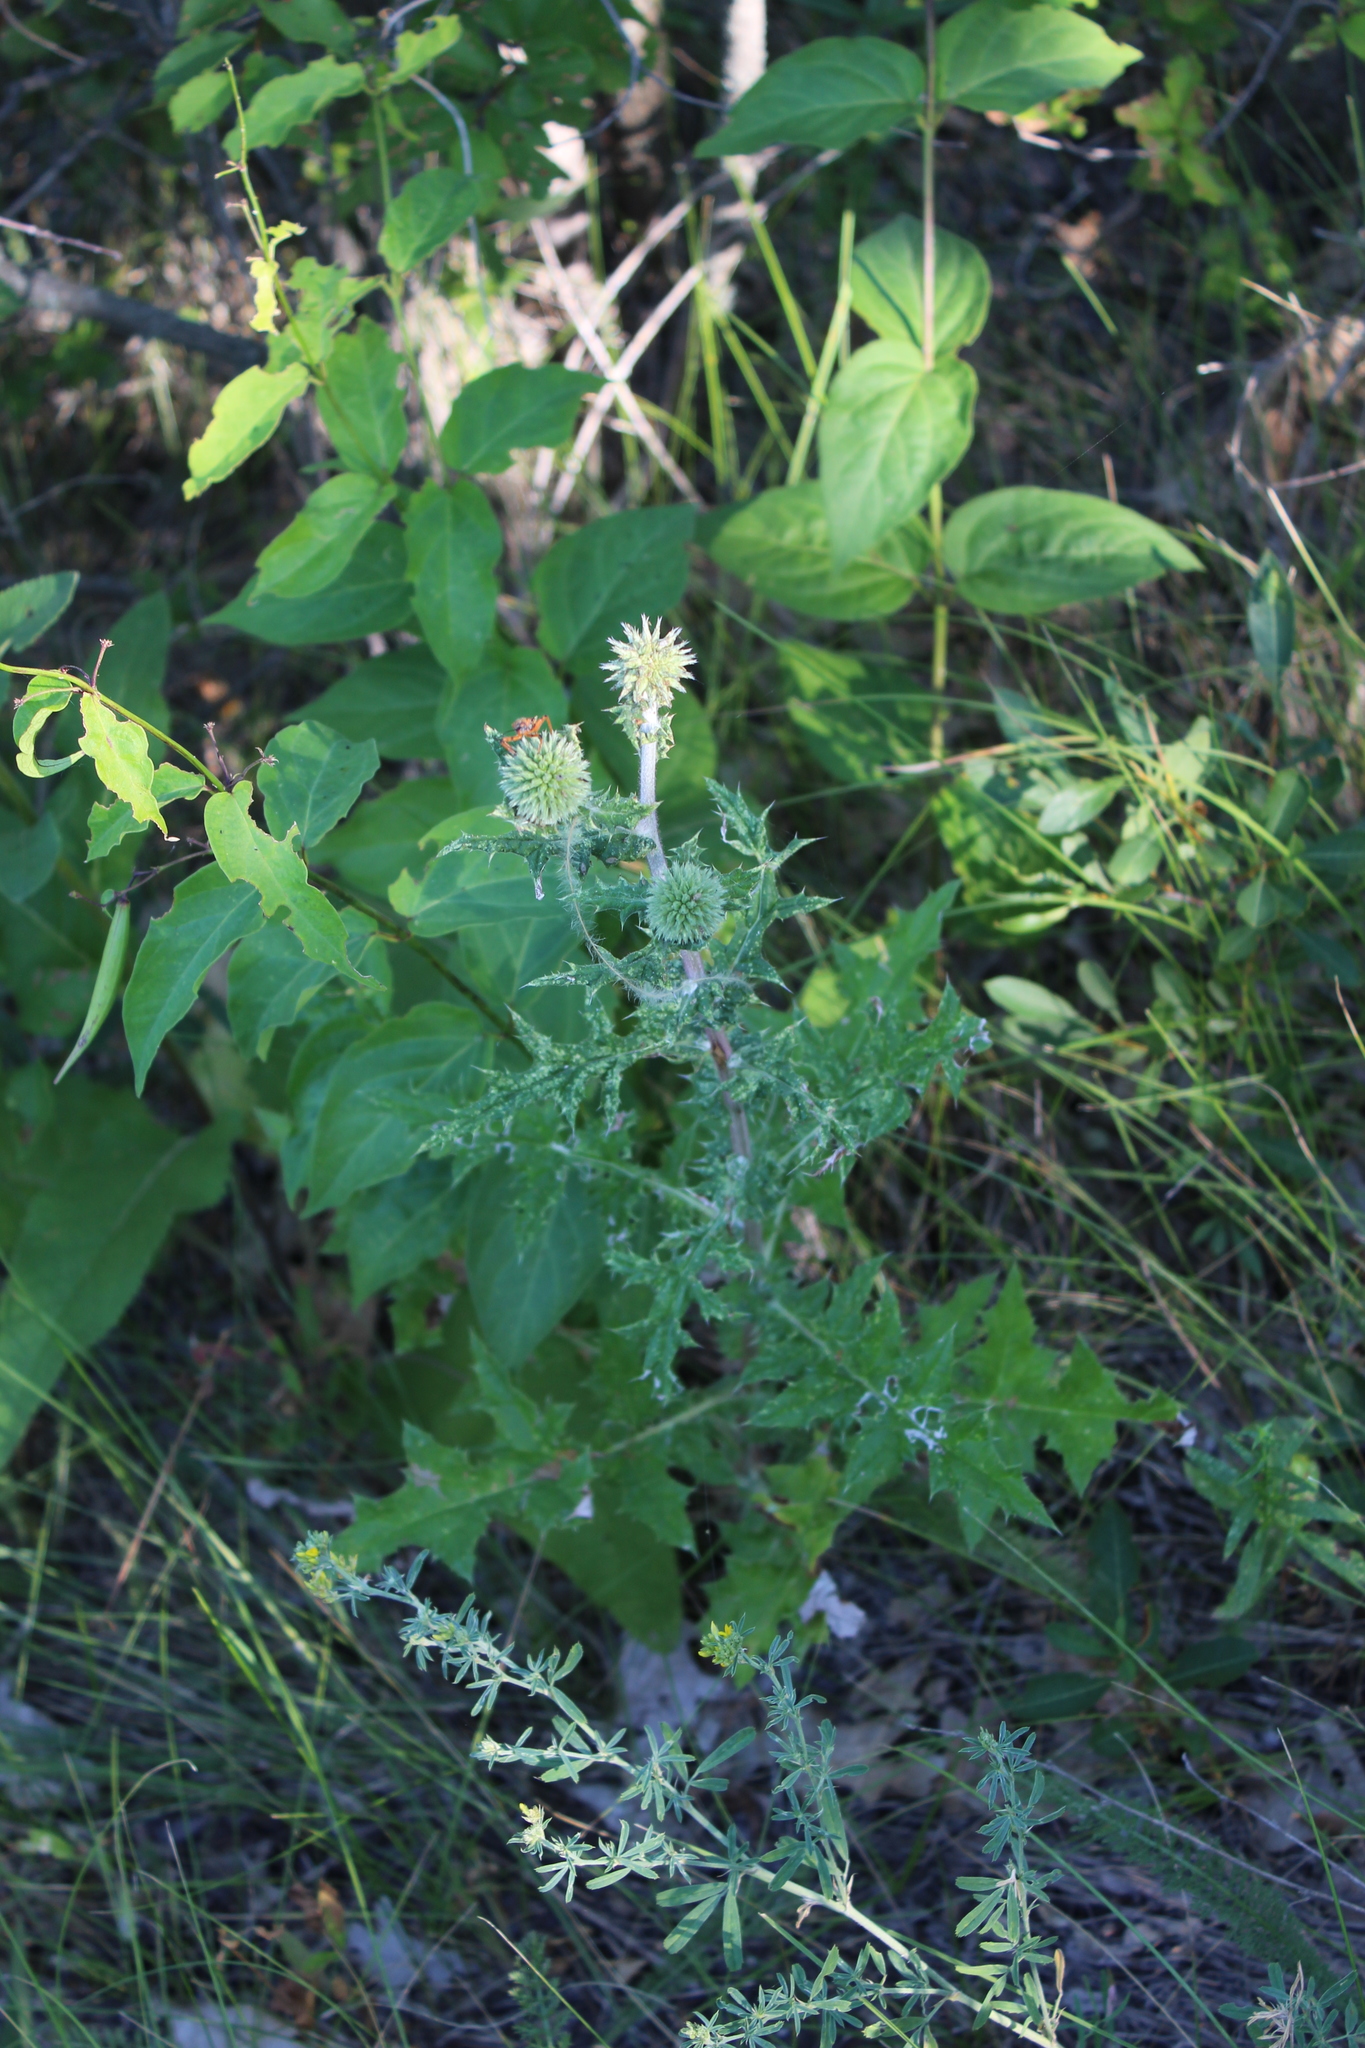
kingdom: Plantae
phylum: Tracheophyta
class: Magnoliopsida
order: Asterales
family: Asteraceae
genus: Echinops
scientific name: Echinops sphaerocephalus
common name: Glandular globe-thistle
